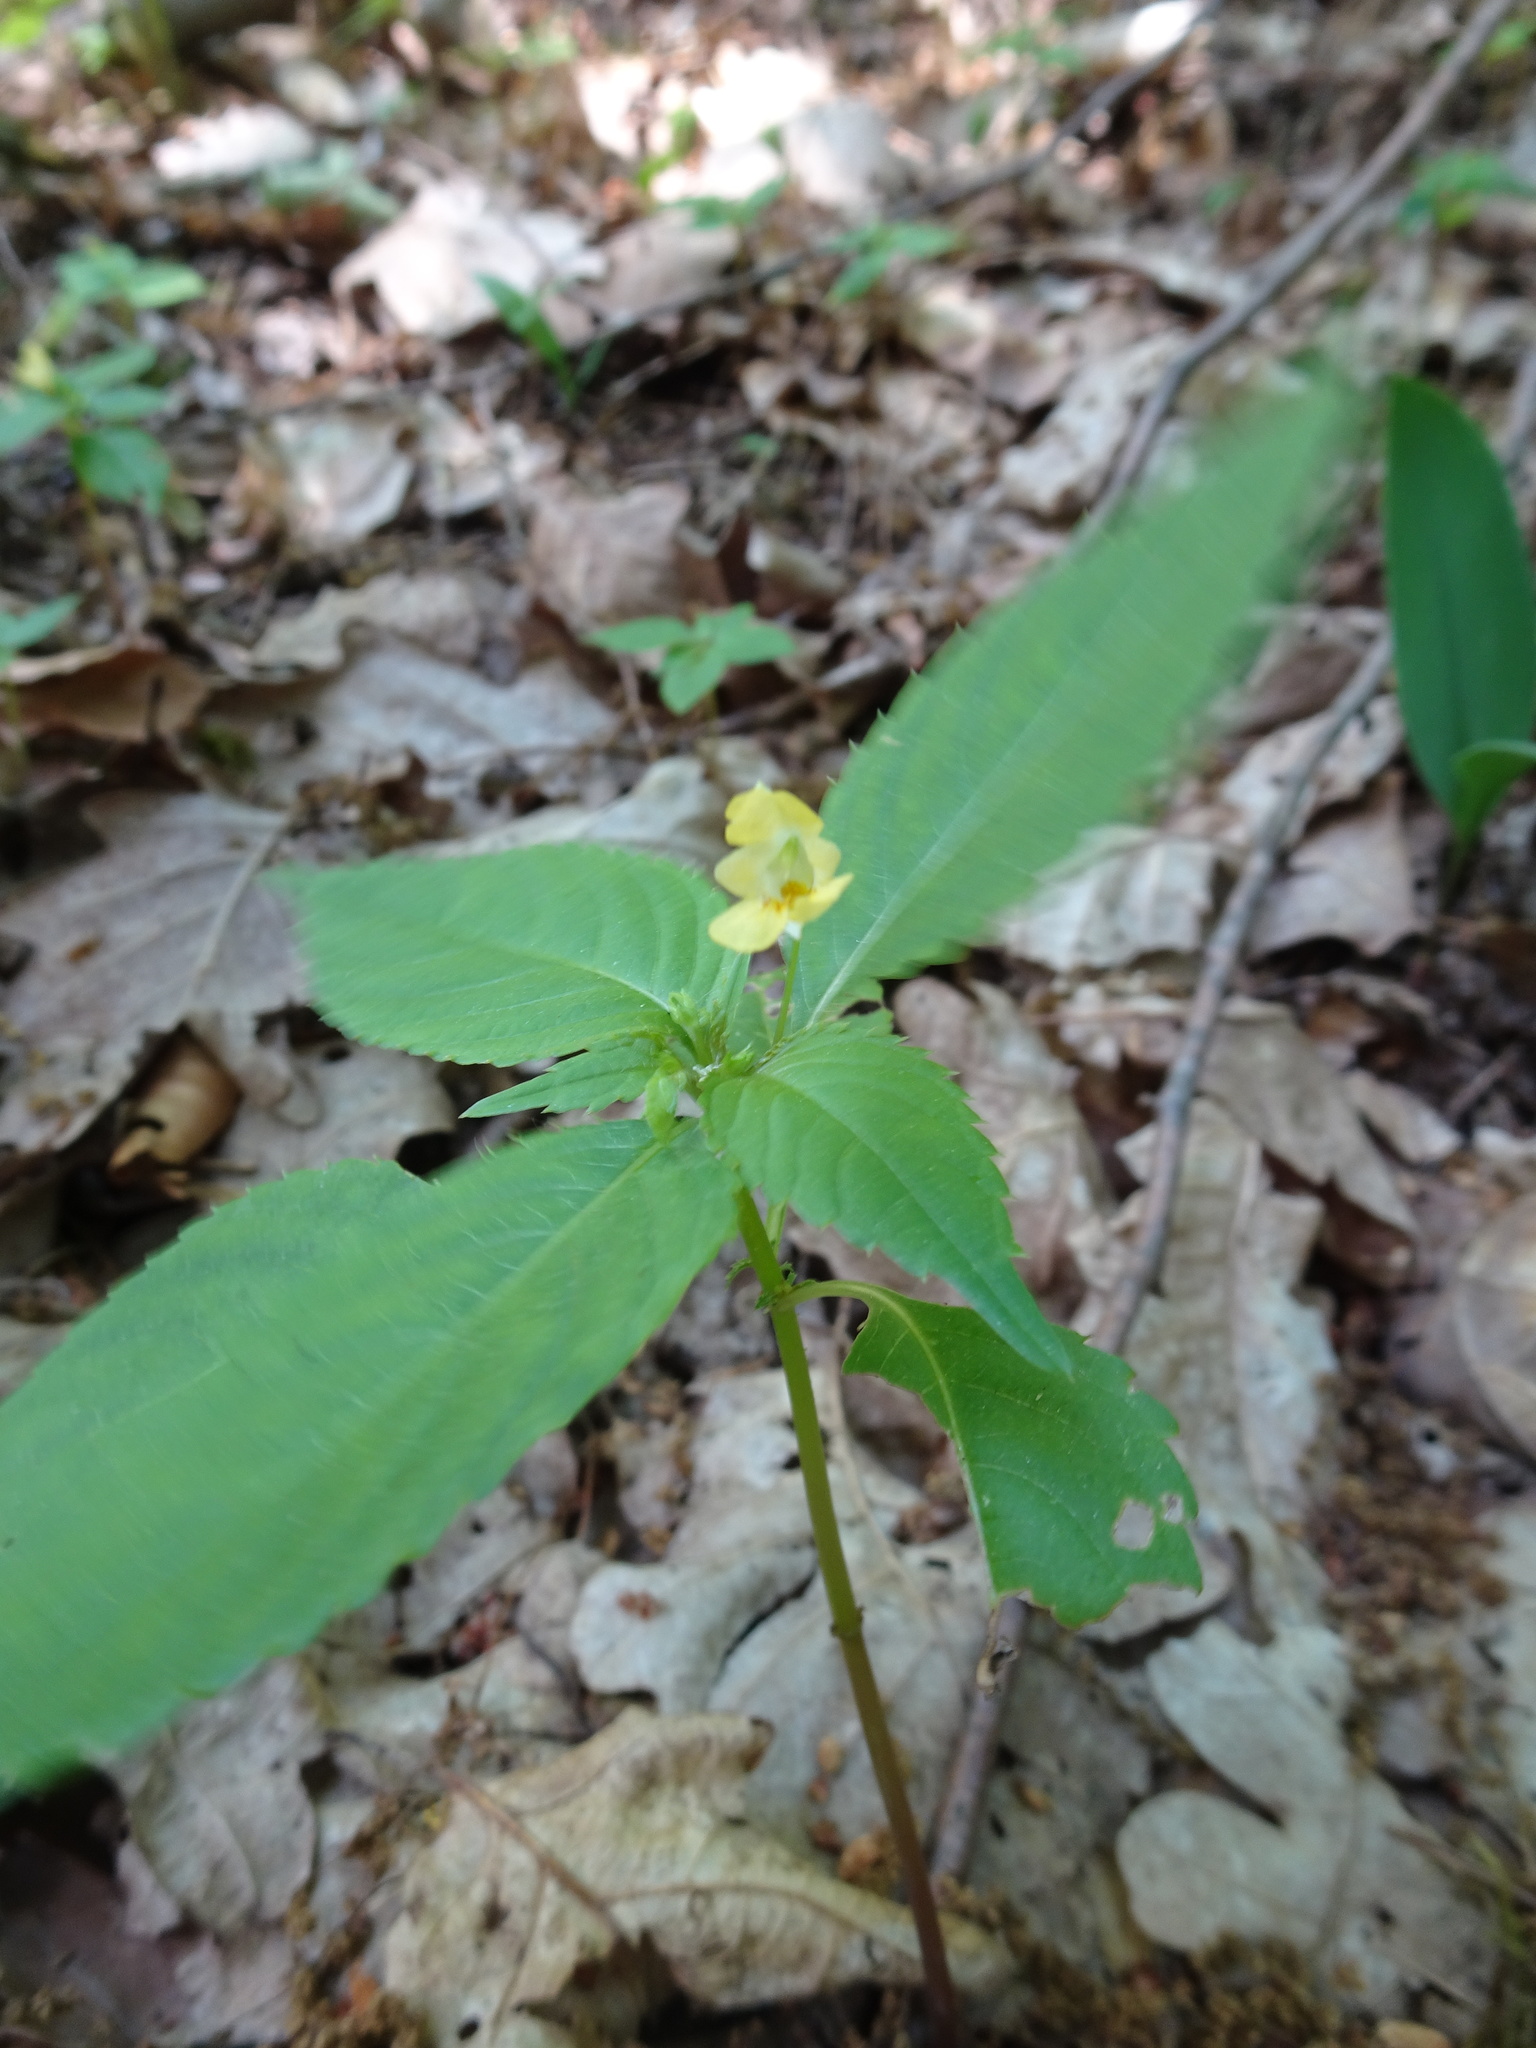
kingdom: Plantae
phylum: Tracheophyta
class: Magnoliopsida
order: Ericales
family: Balsaminaceae
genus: Impatiens
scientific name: Impatiens parviflora
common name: Small balsam
